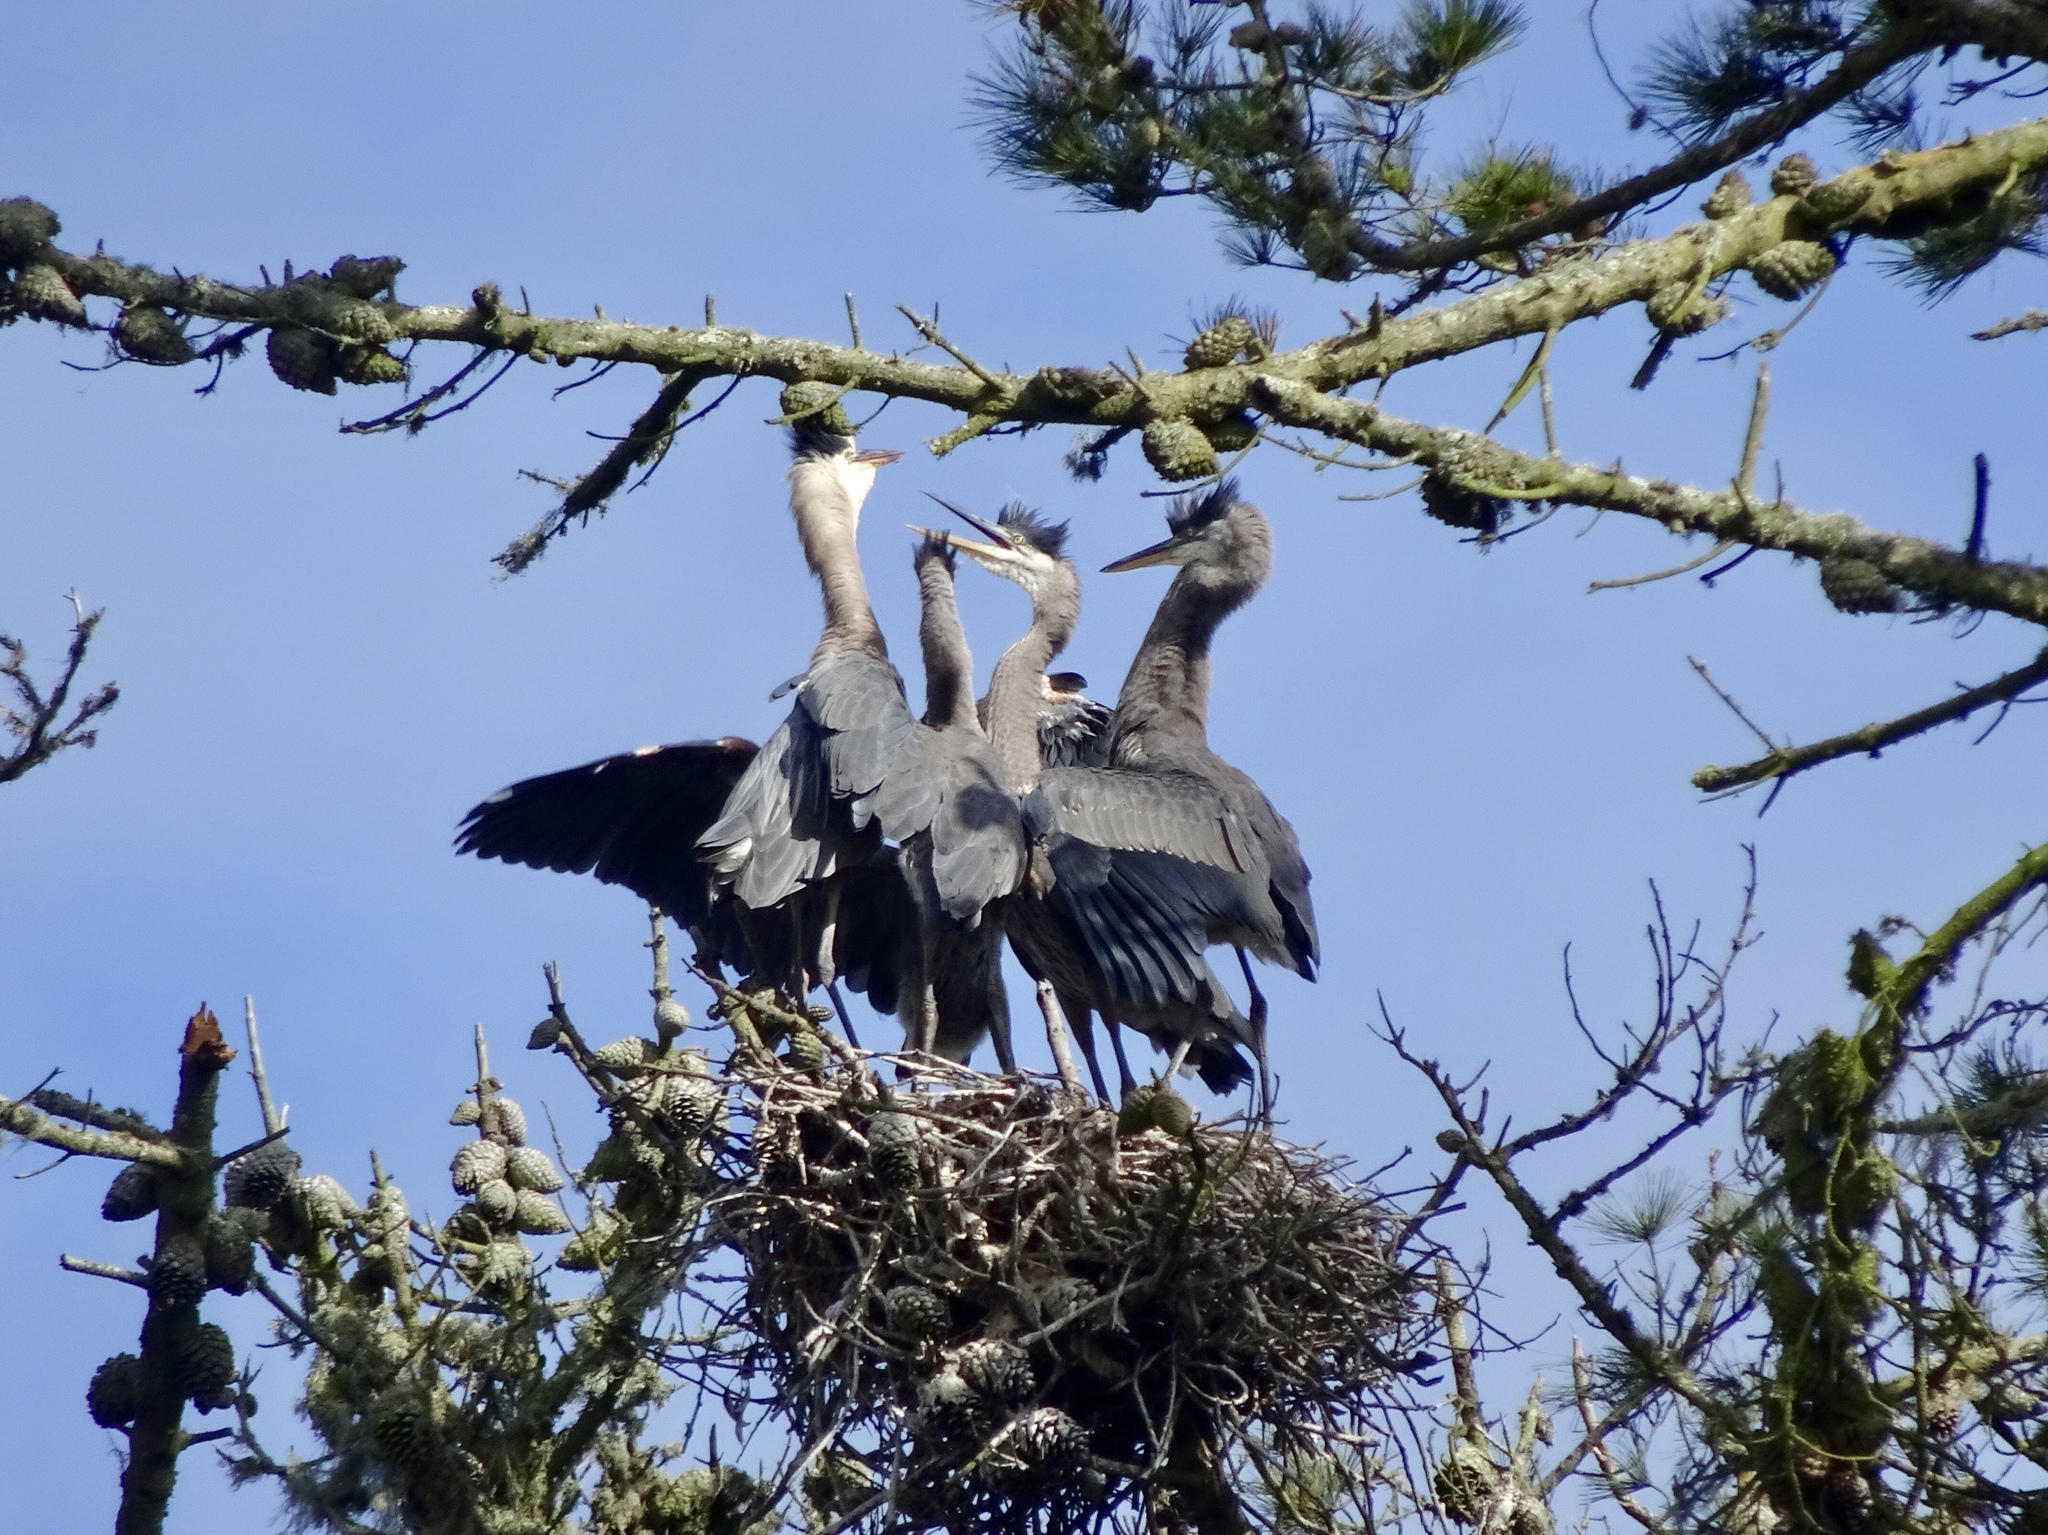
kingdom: Animalia
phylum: Chordata
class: Aves
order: Pelecaniformes
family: Ardeidae
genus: Ardea
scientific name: Ardea herodias
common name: Great blue heron
